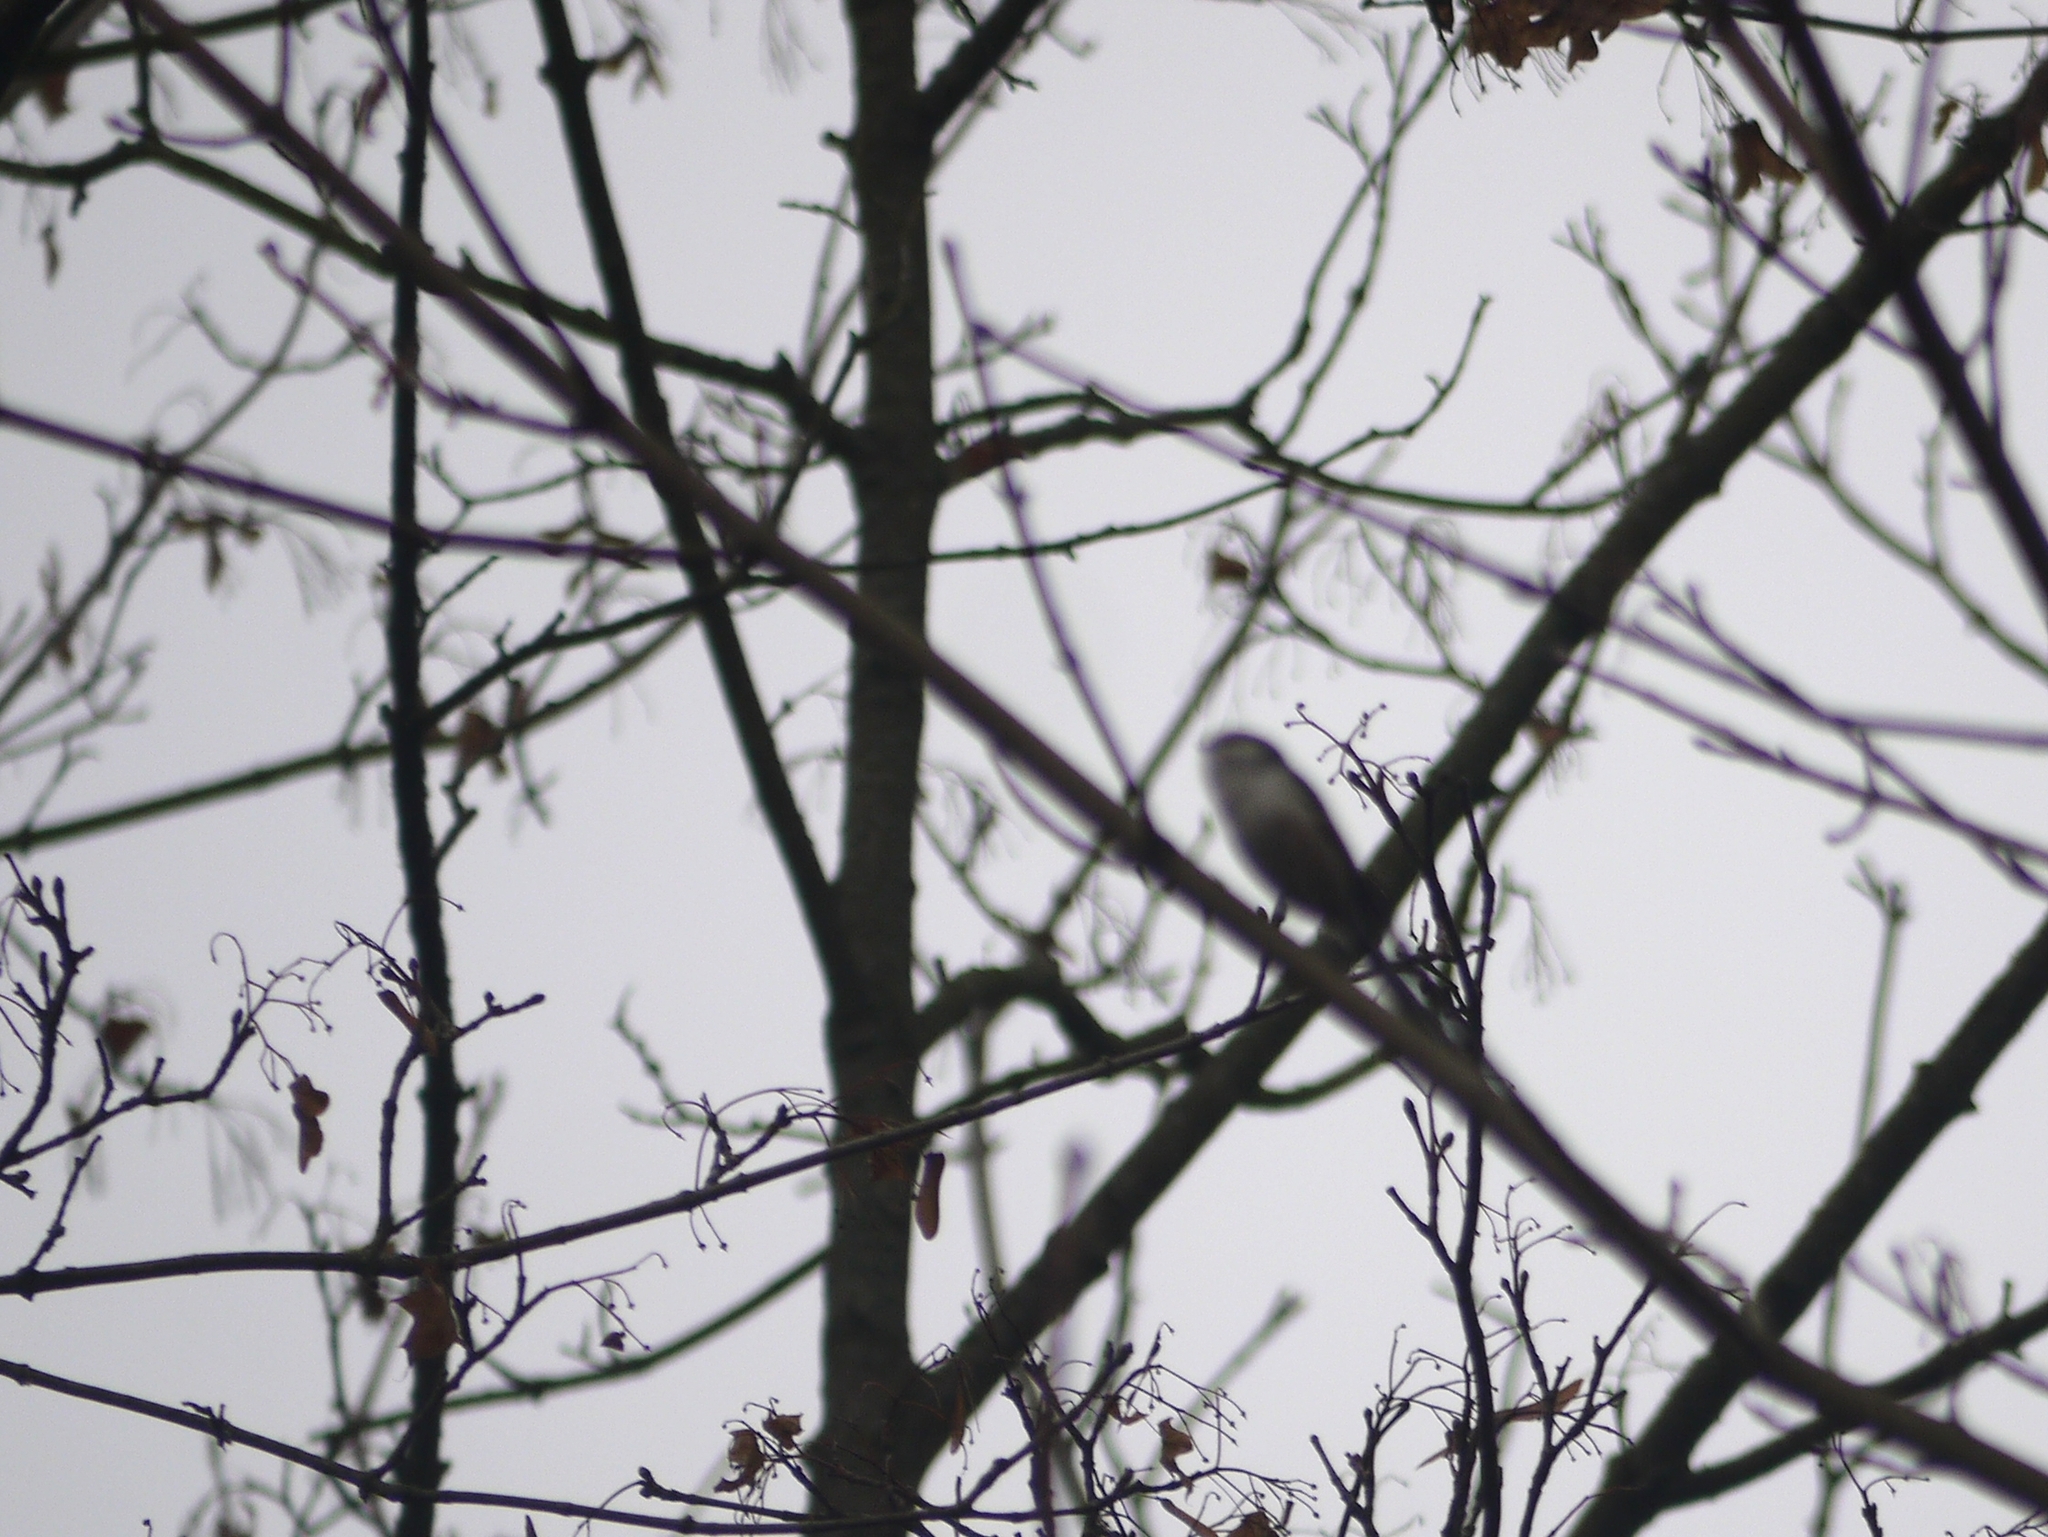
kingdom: Animalia
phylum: Chordata
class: Aves
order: Passeriformes
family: Aegithalidae
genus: Aegithalos
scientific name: Aegithalos caudatus
